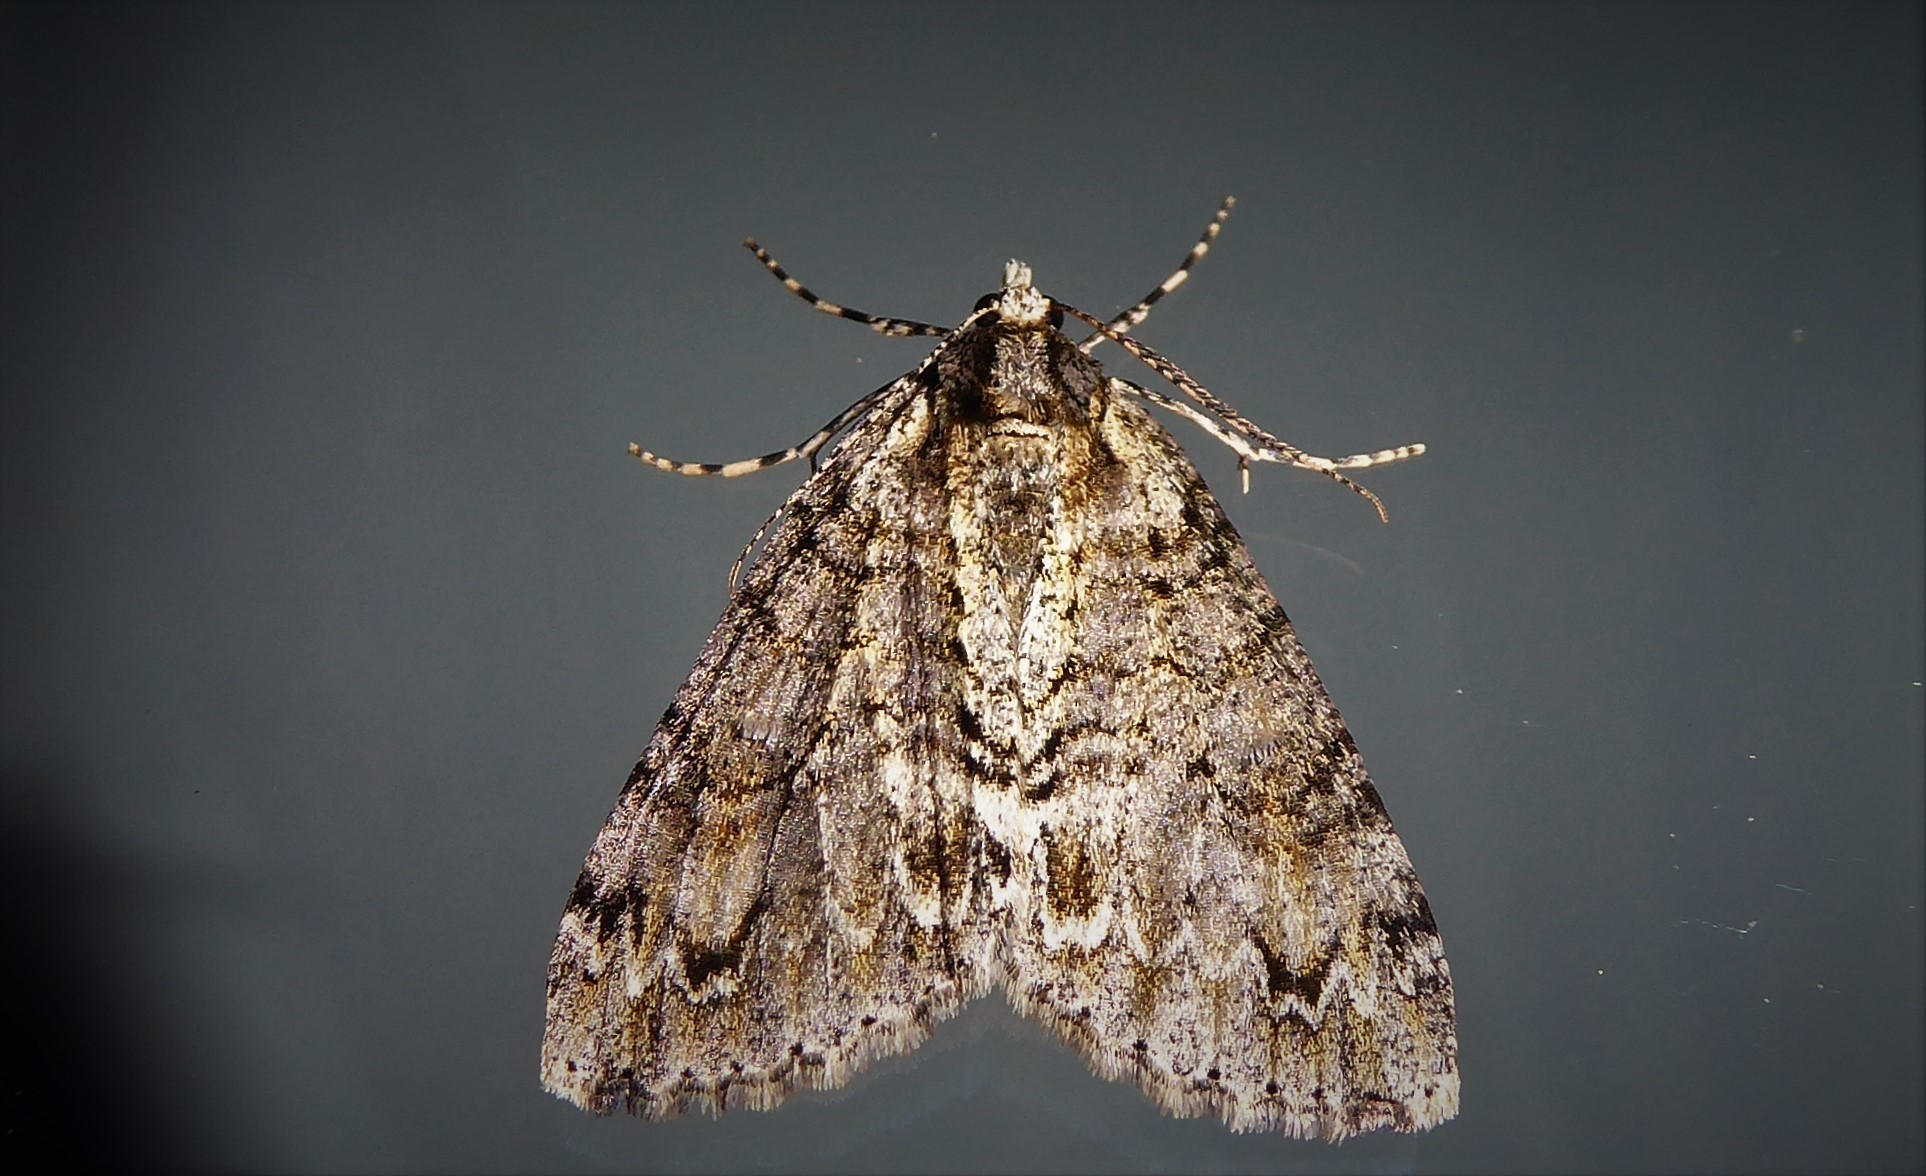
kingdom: Animalia
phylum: Arthropoda
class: Insecta
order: Lepidoptera
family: Geometridae
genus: Pseudocoremia
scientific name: Pseudocoremia suavis
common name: Common forest looper
